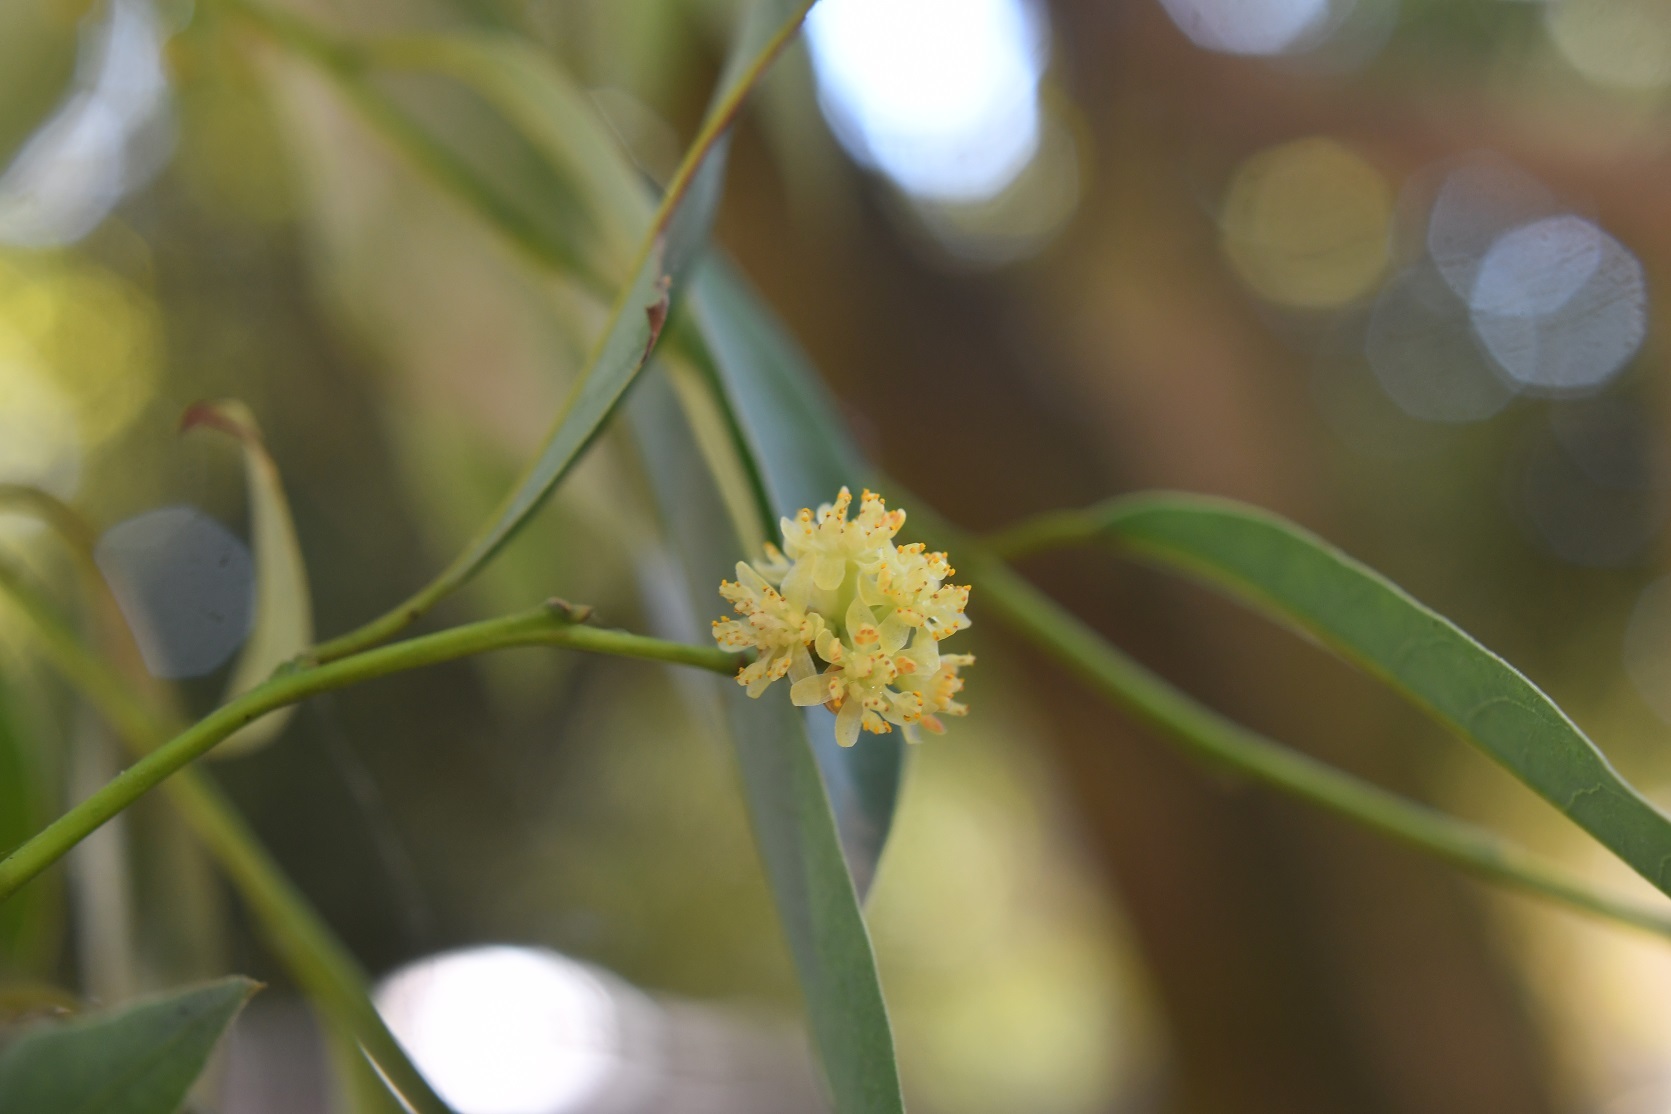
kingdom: Plantae
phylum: Tracheophyta
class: Magnoliopsida
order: Laurales
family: Lauraceae
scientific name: Lauraceae
